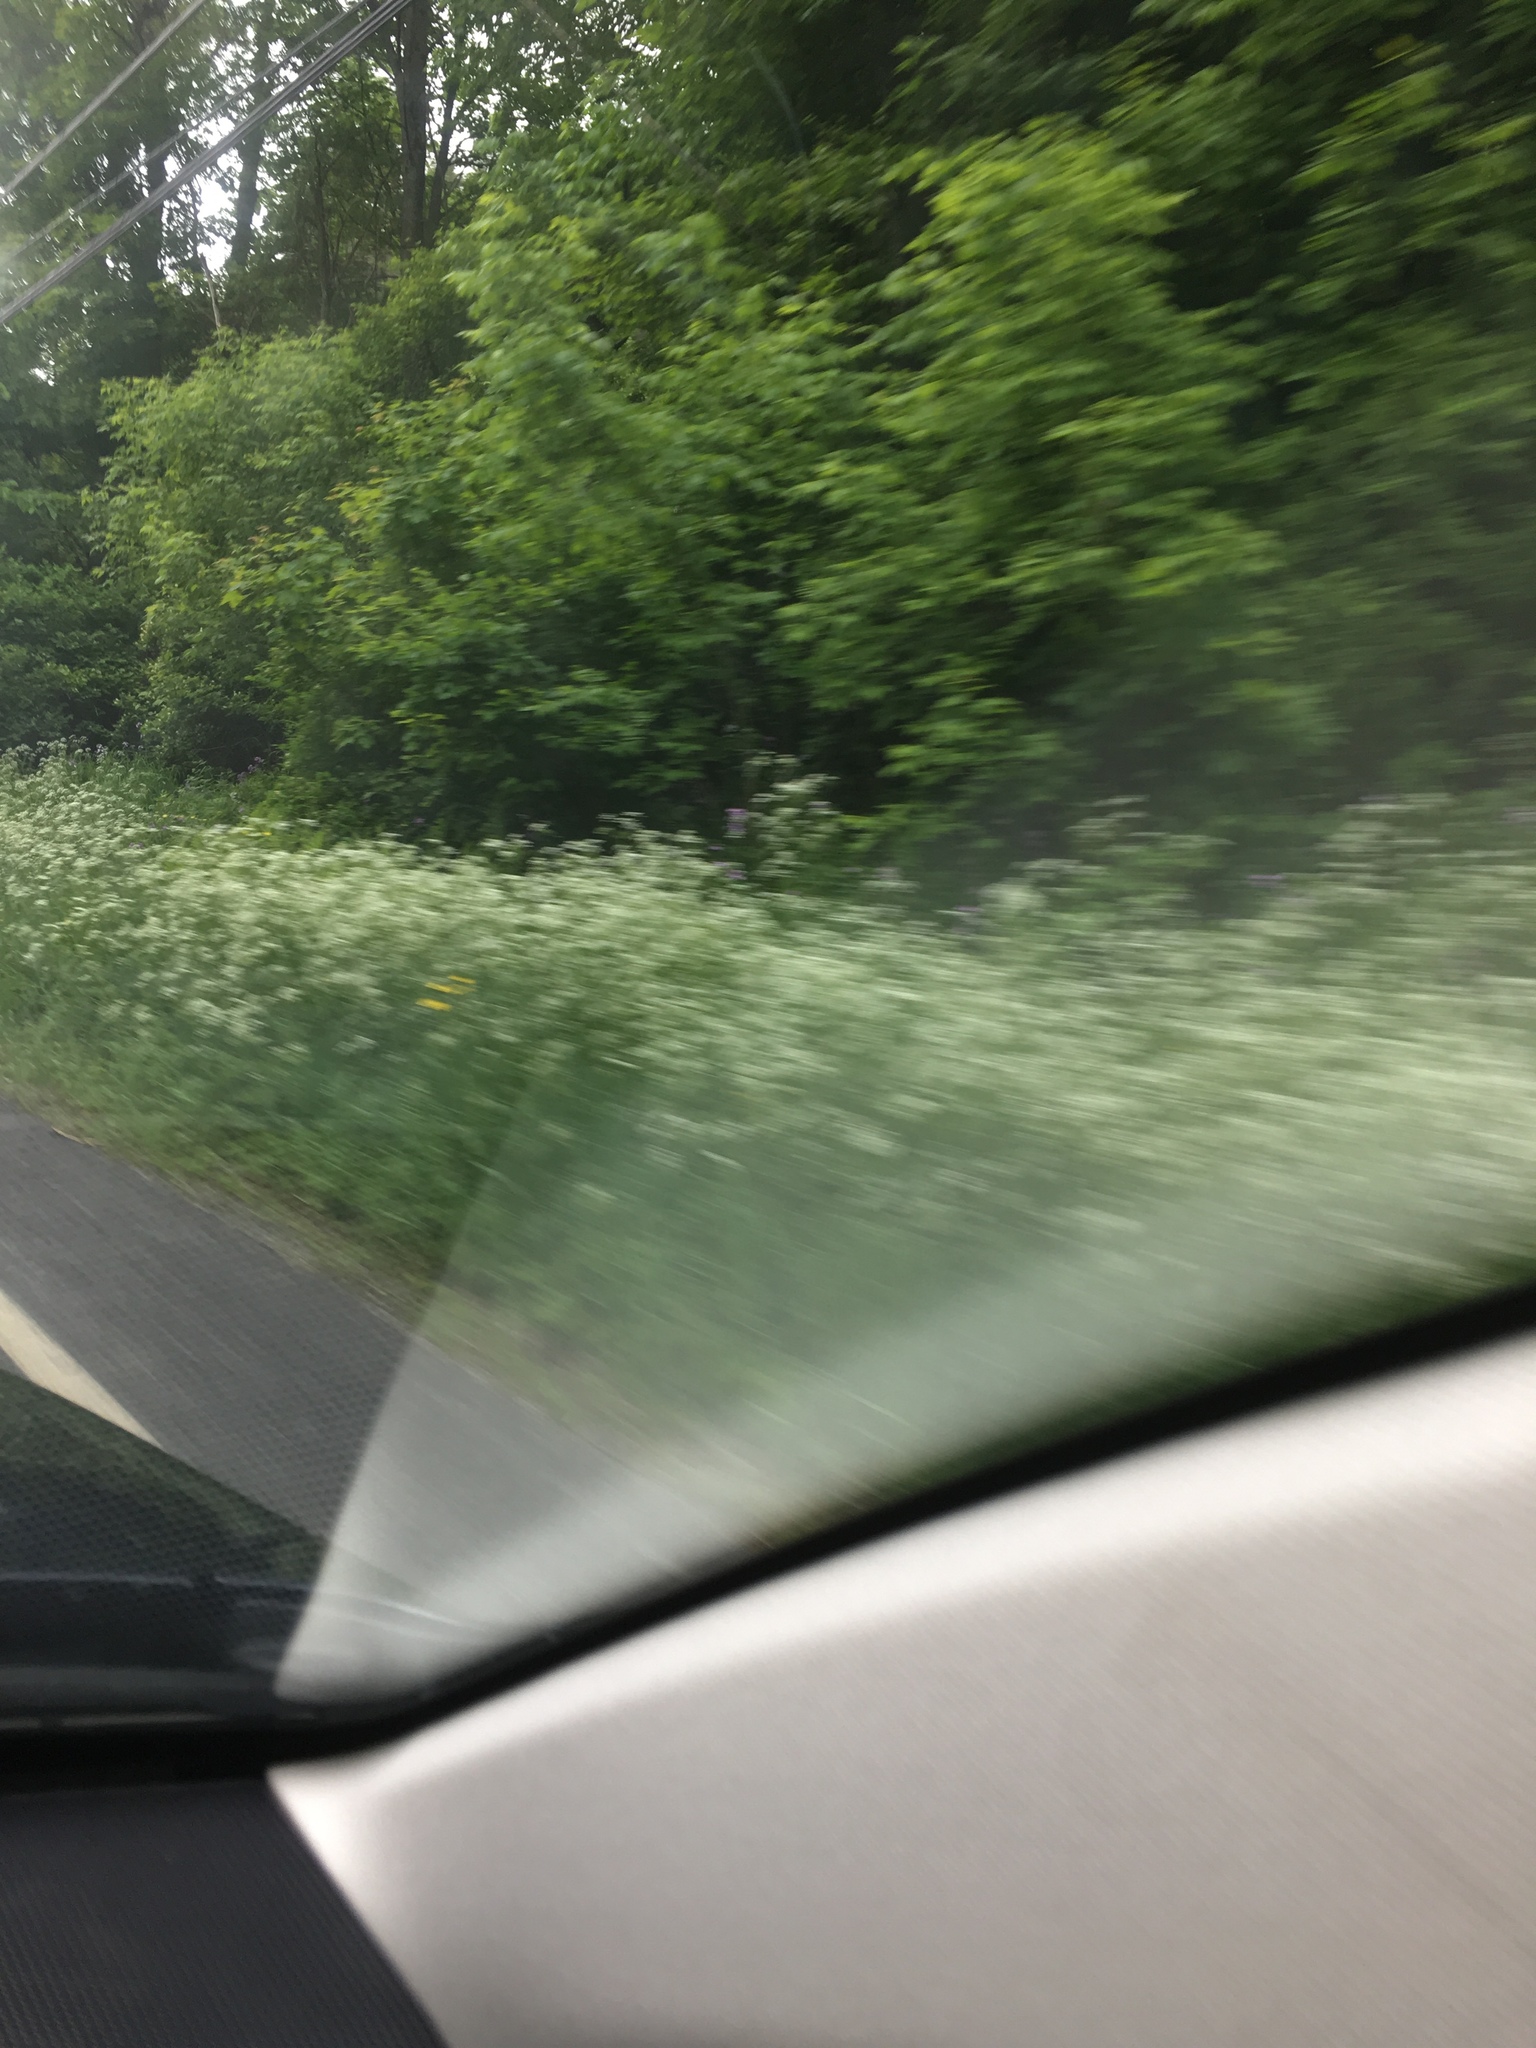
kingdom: Plantae
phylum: Tracheophyta
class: Magnoliopsida
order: Apiales
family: Apiaceae
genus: Anthriscus
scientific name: Anthriscus sylvestris
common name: Cow parsley
